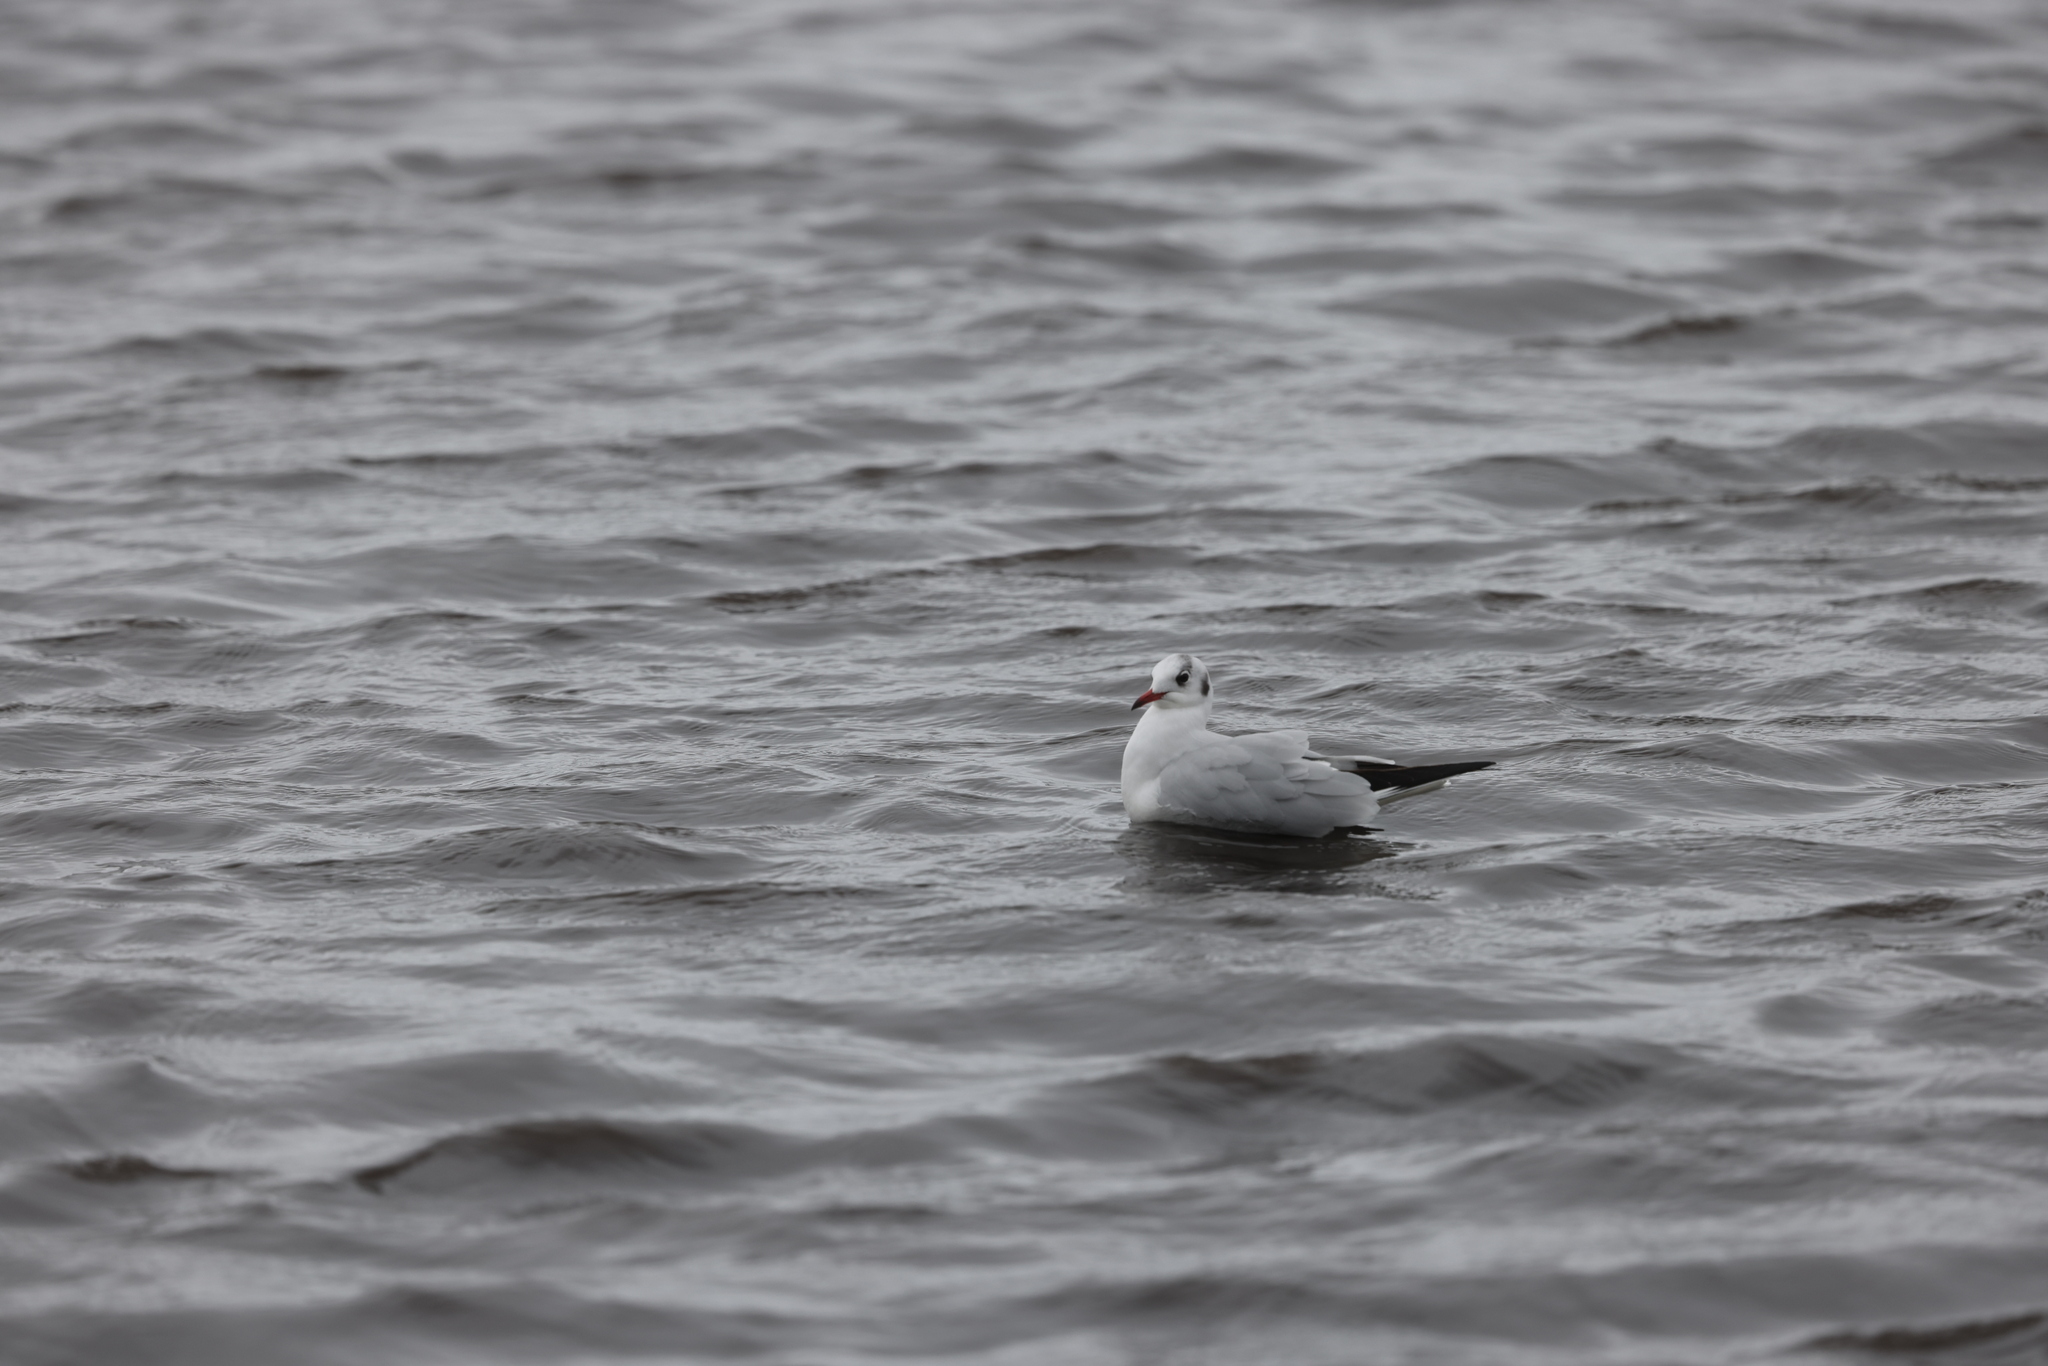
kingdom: Animalia
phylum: Chordata
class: Aves
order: Charadriiformes
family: Laridae
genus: Chroicocephalus
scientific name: Chroicocephalus ridibundus
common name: Black-headed gull
